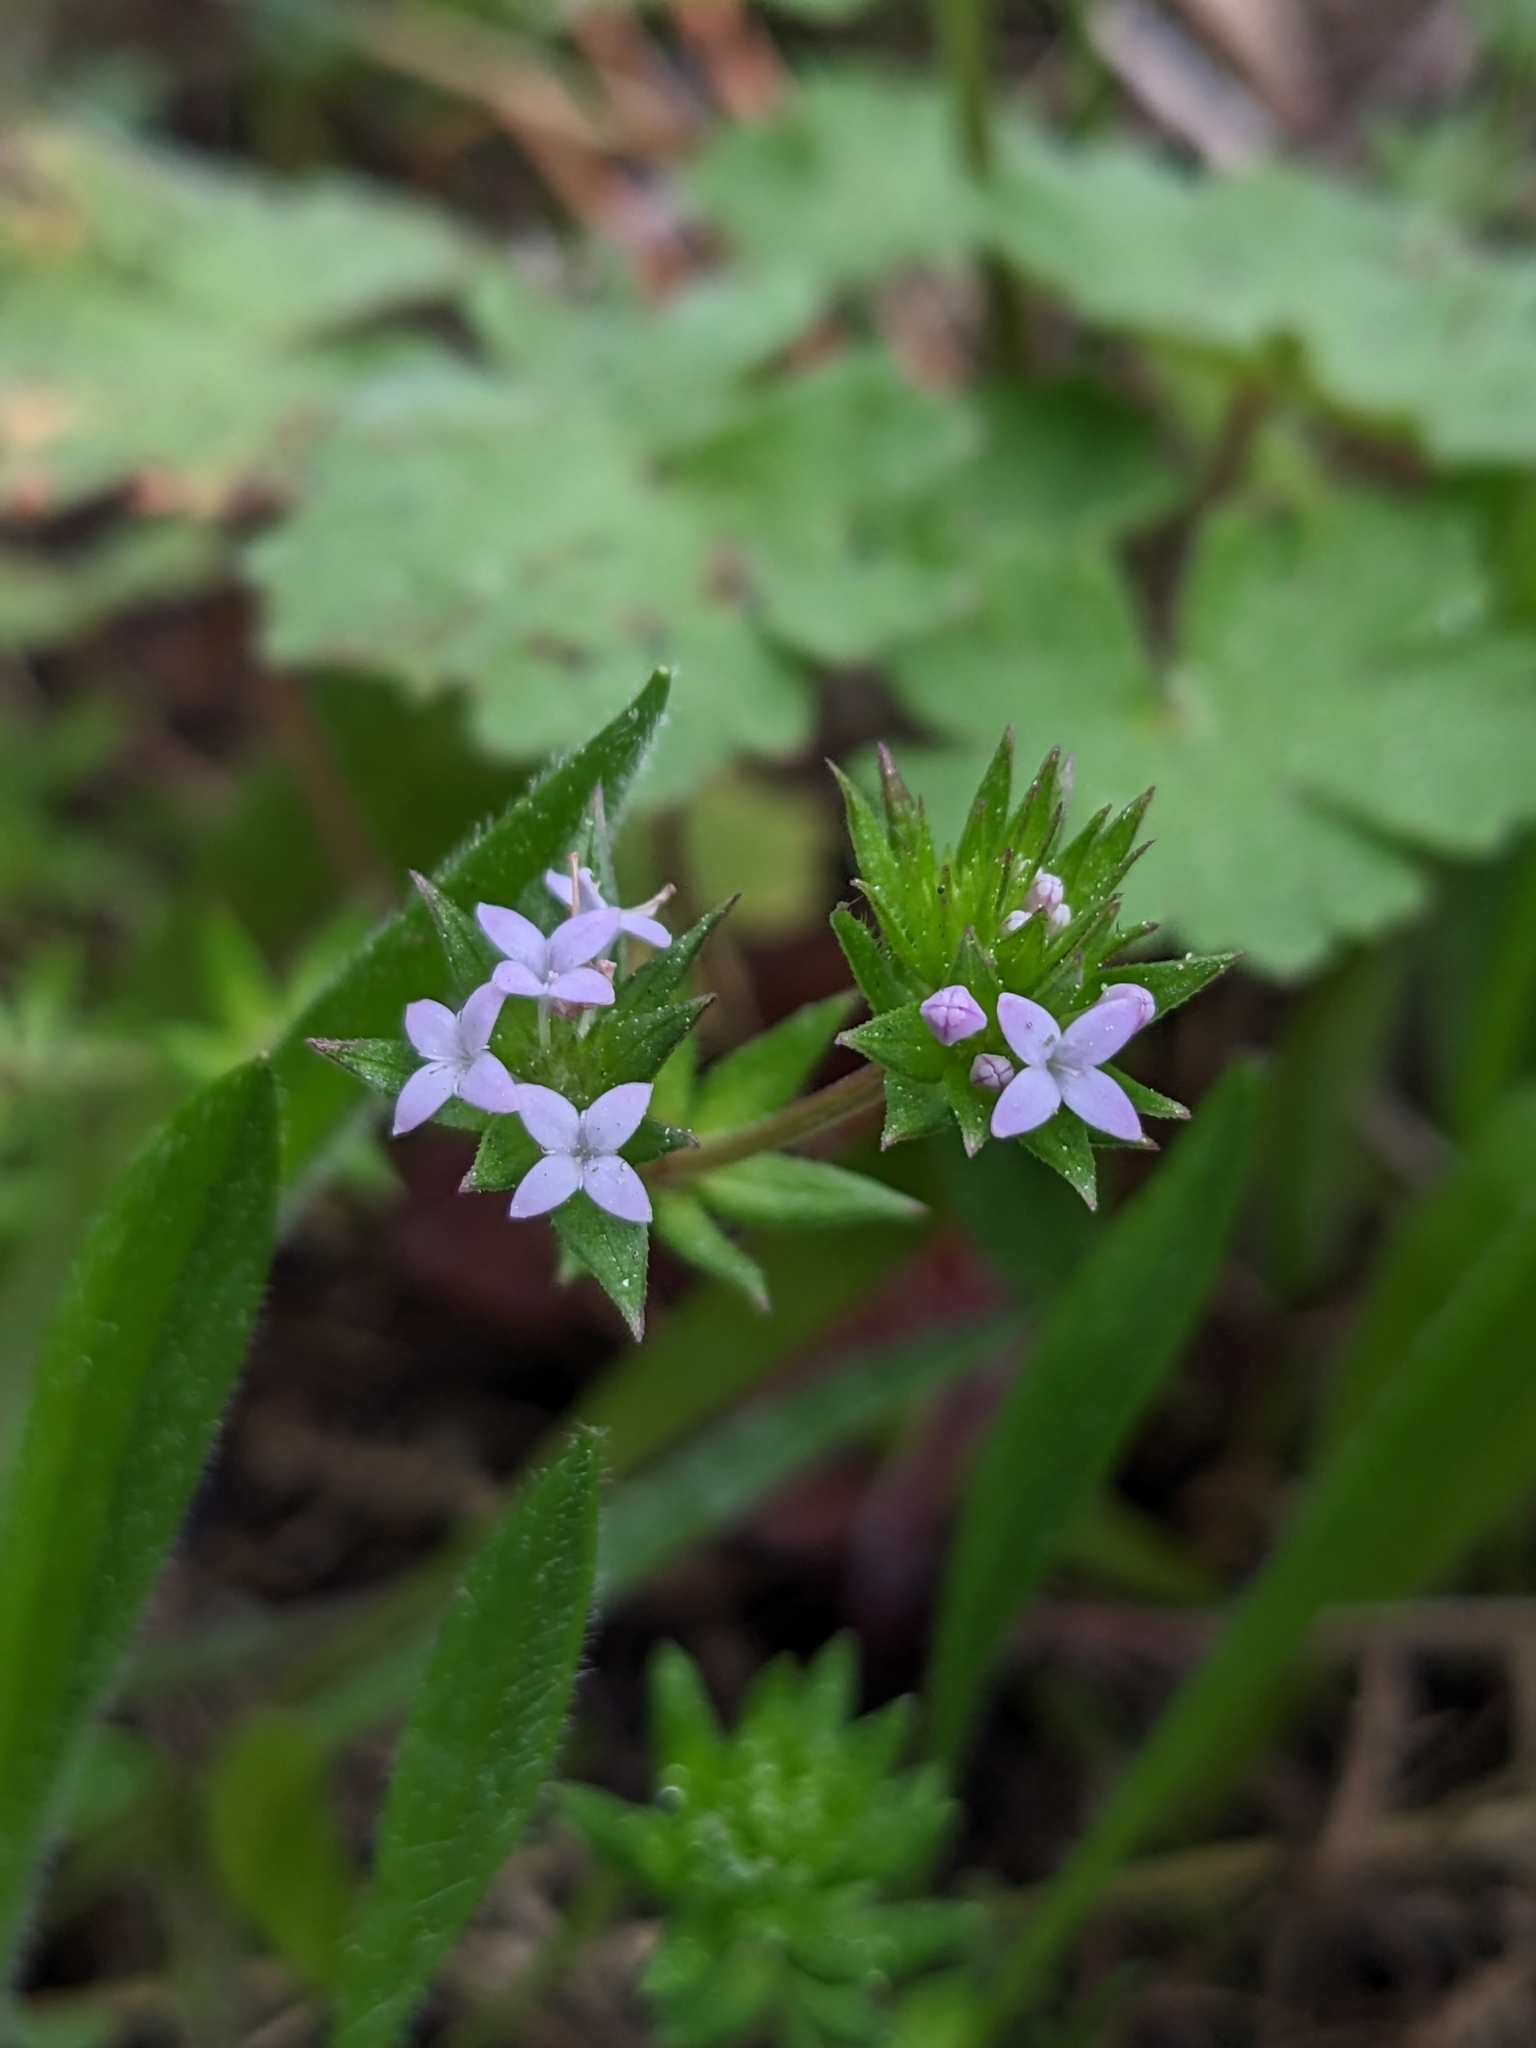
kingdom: Plantae
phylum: Tracheophyta
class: Magnoliopsida
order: Gentianales
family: Rubiaceae
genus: Sherardia
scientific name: Sherardia arvensis
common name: Field madder
